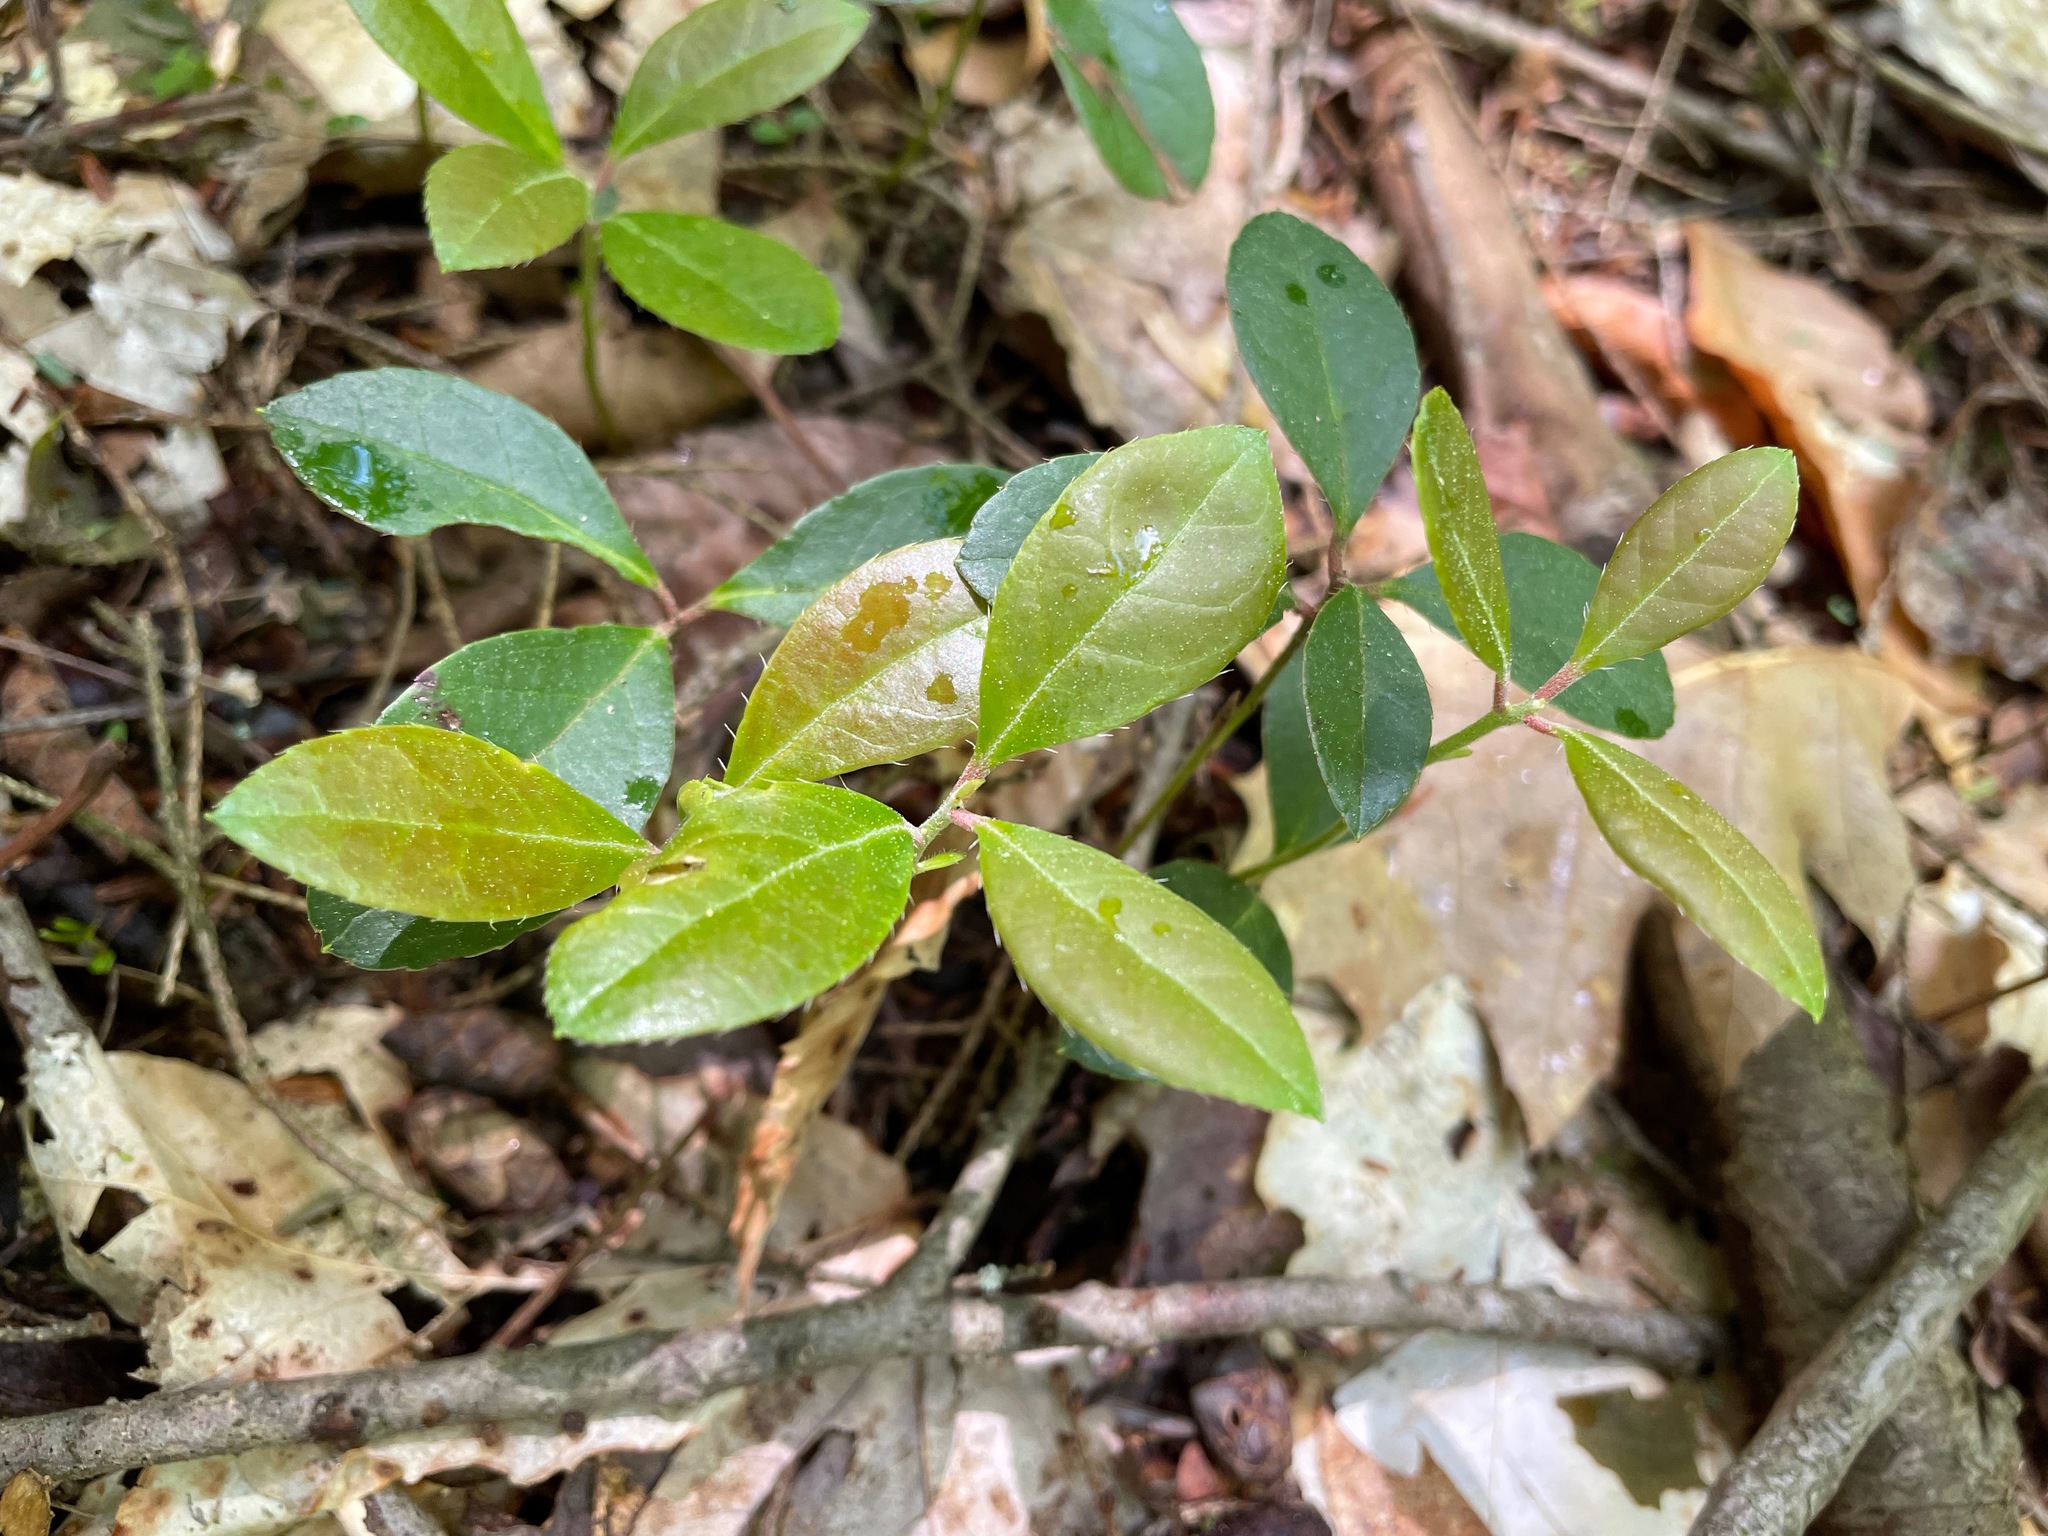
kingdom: Plantae
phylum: Tracheophyta
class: Magnoliopsida
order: Ericales
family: Ericaceae
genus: Gaultheria
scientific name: Gaultheria procumbens
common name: Checkerberry
